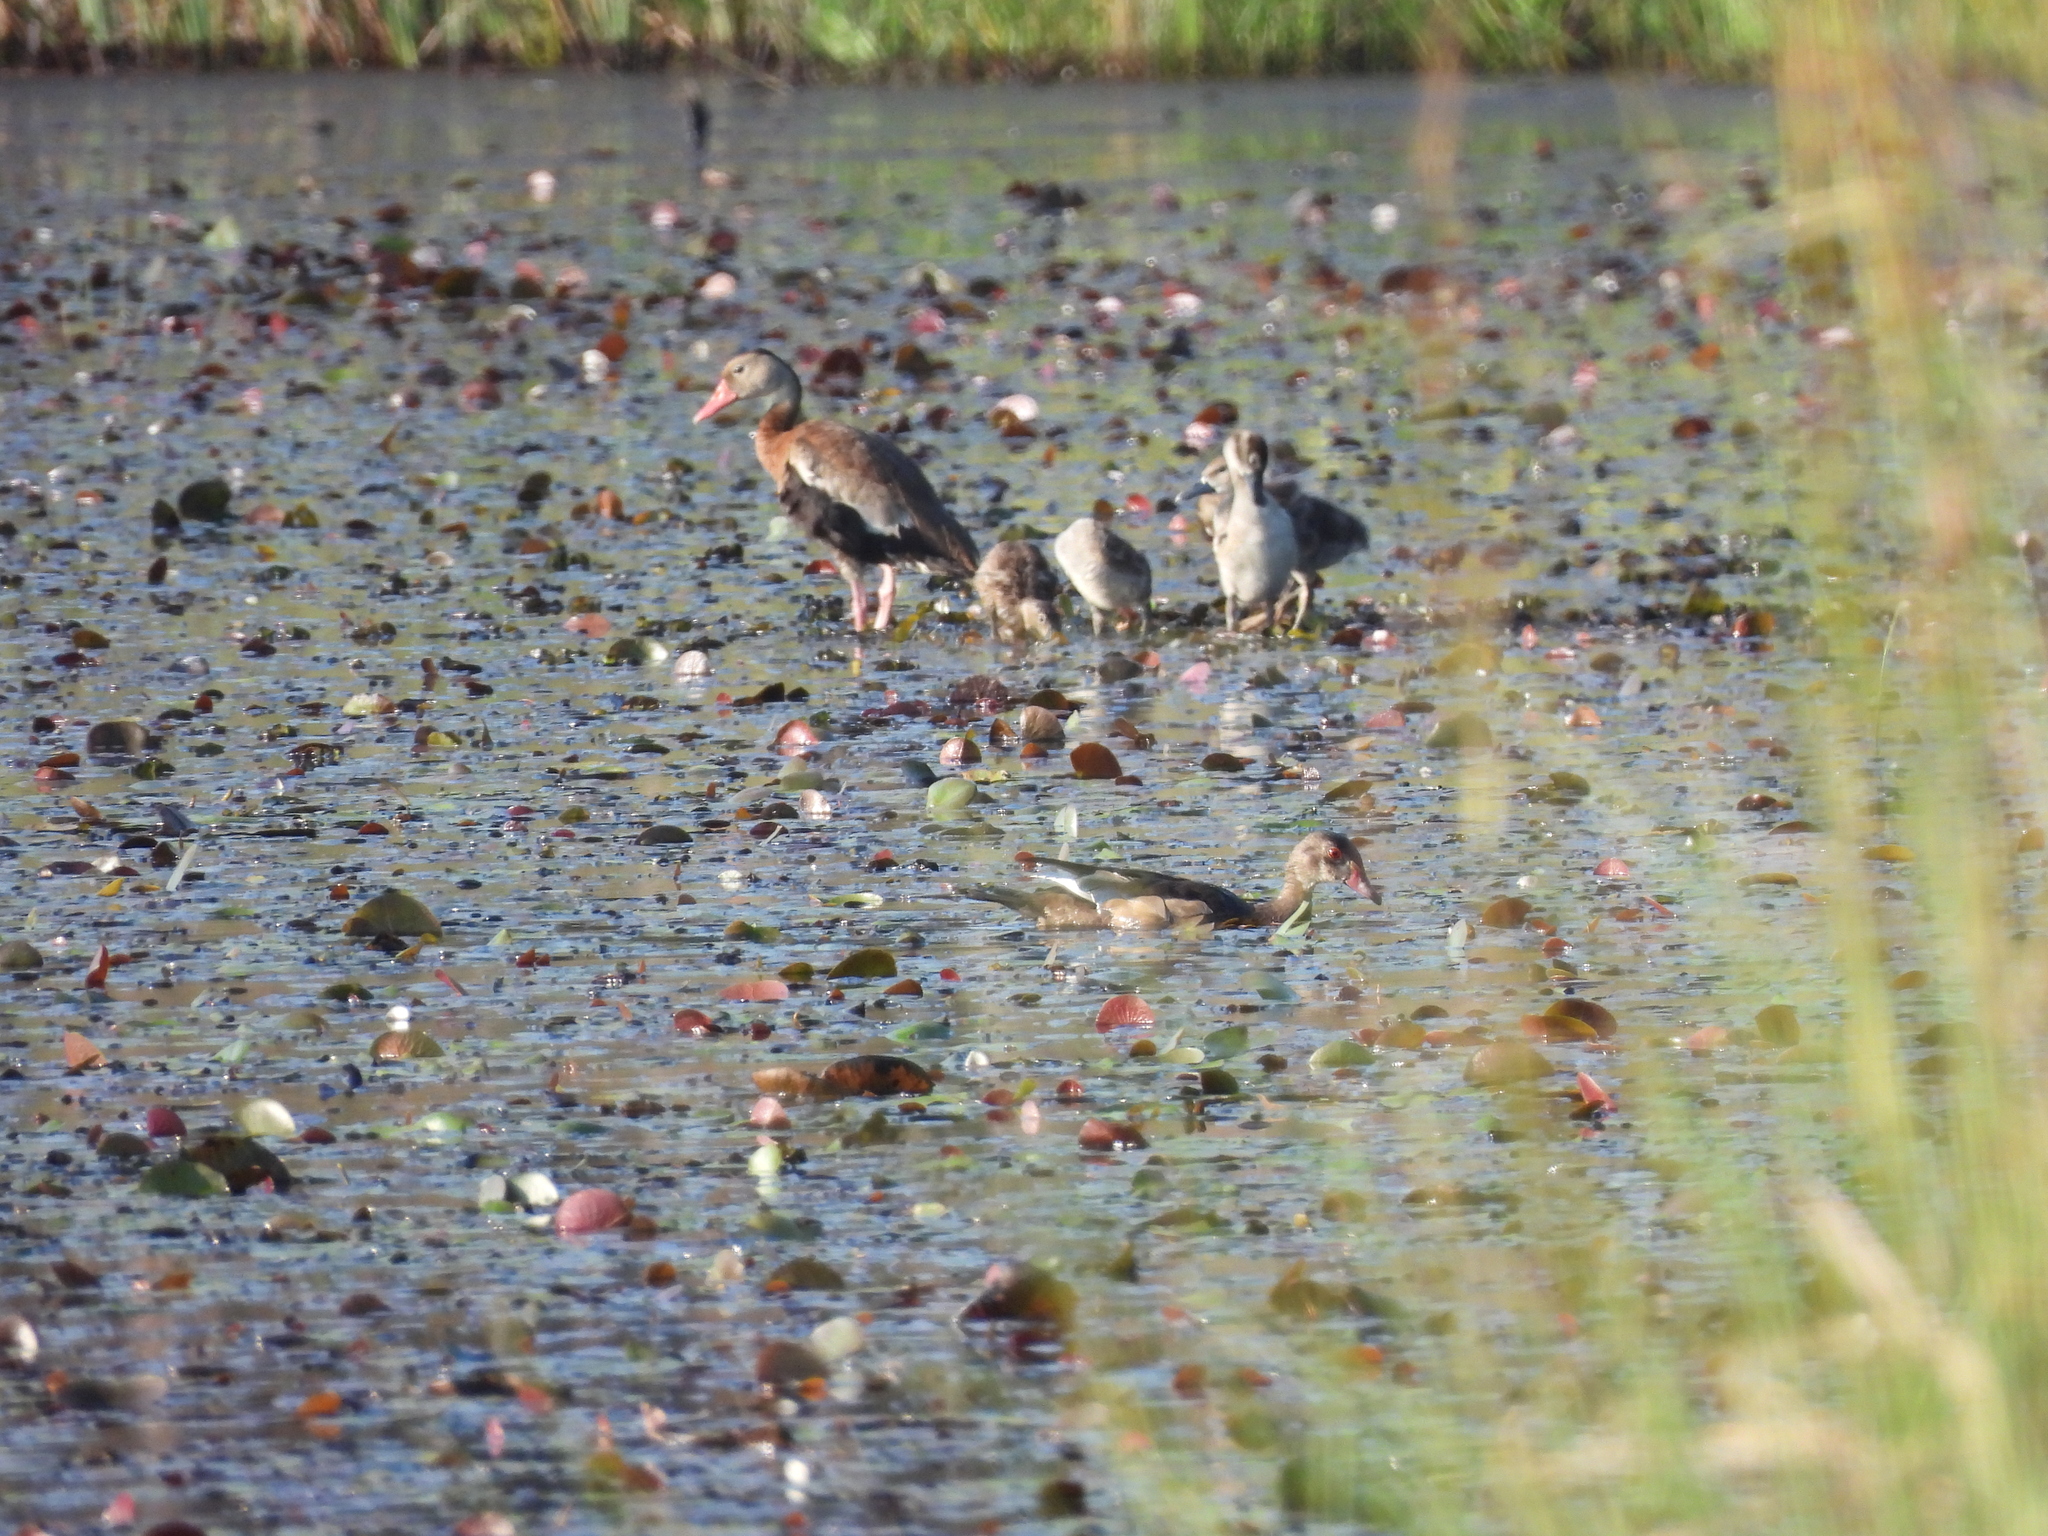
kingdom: Animalia
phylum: Chordata
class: Aves
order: Anseriformes
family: Anatidae
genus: Dendrocygna
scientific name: Dendrocygna autumnalis
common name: Black-bellied whistling duck
